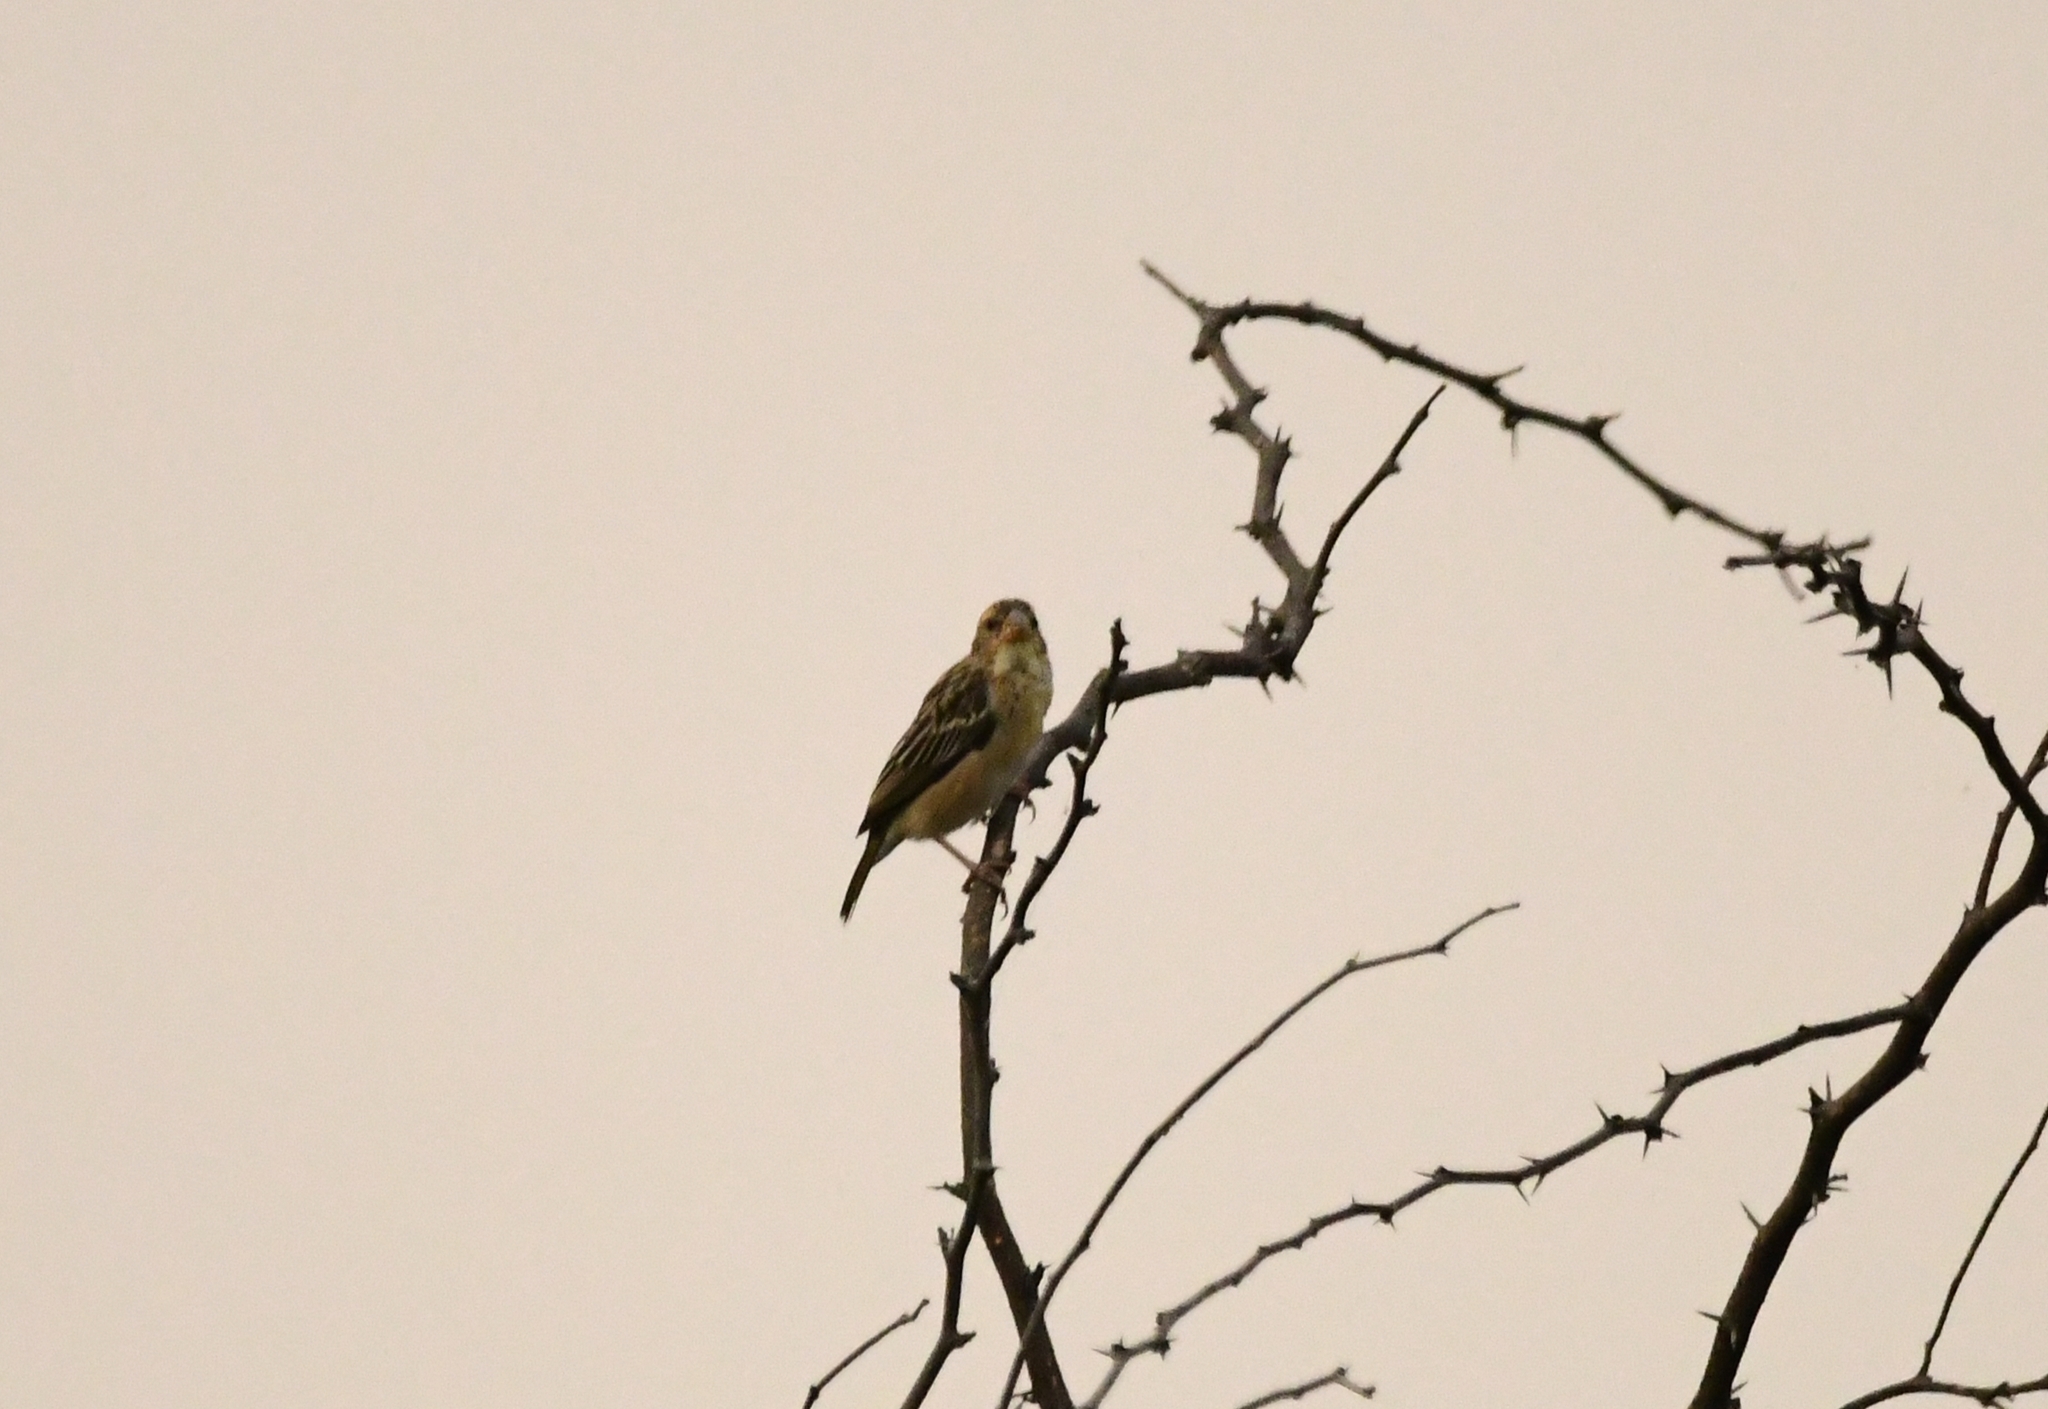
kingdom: Animalia
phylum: Chordata
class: Aves
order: Passeriformes
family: Ploceidae
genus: Ploceus
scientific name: Ploceus philippinus
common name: Baya weaver
